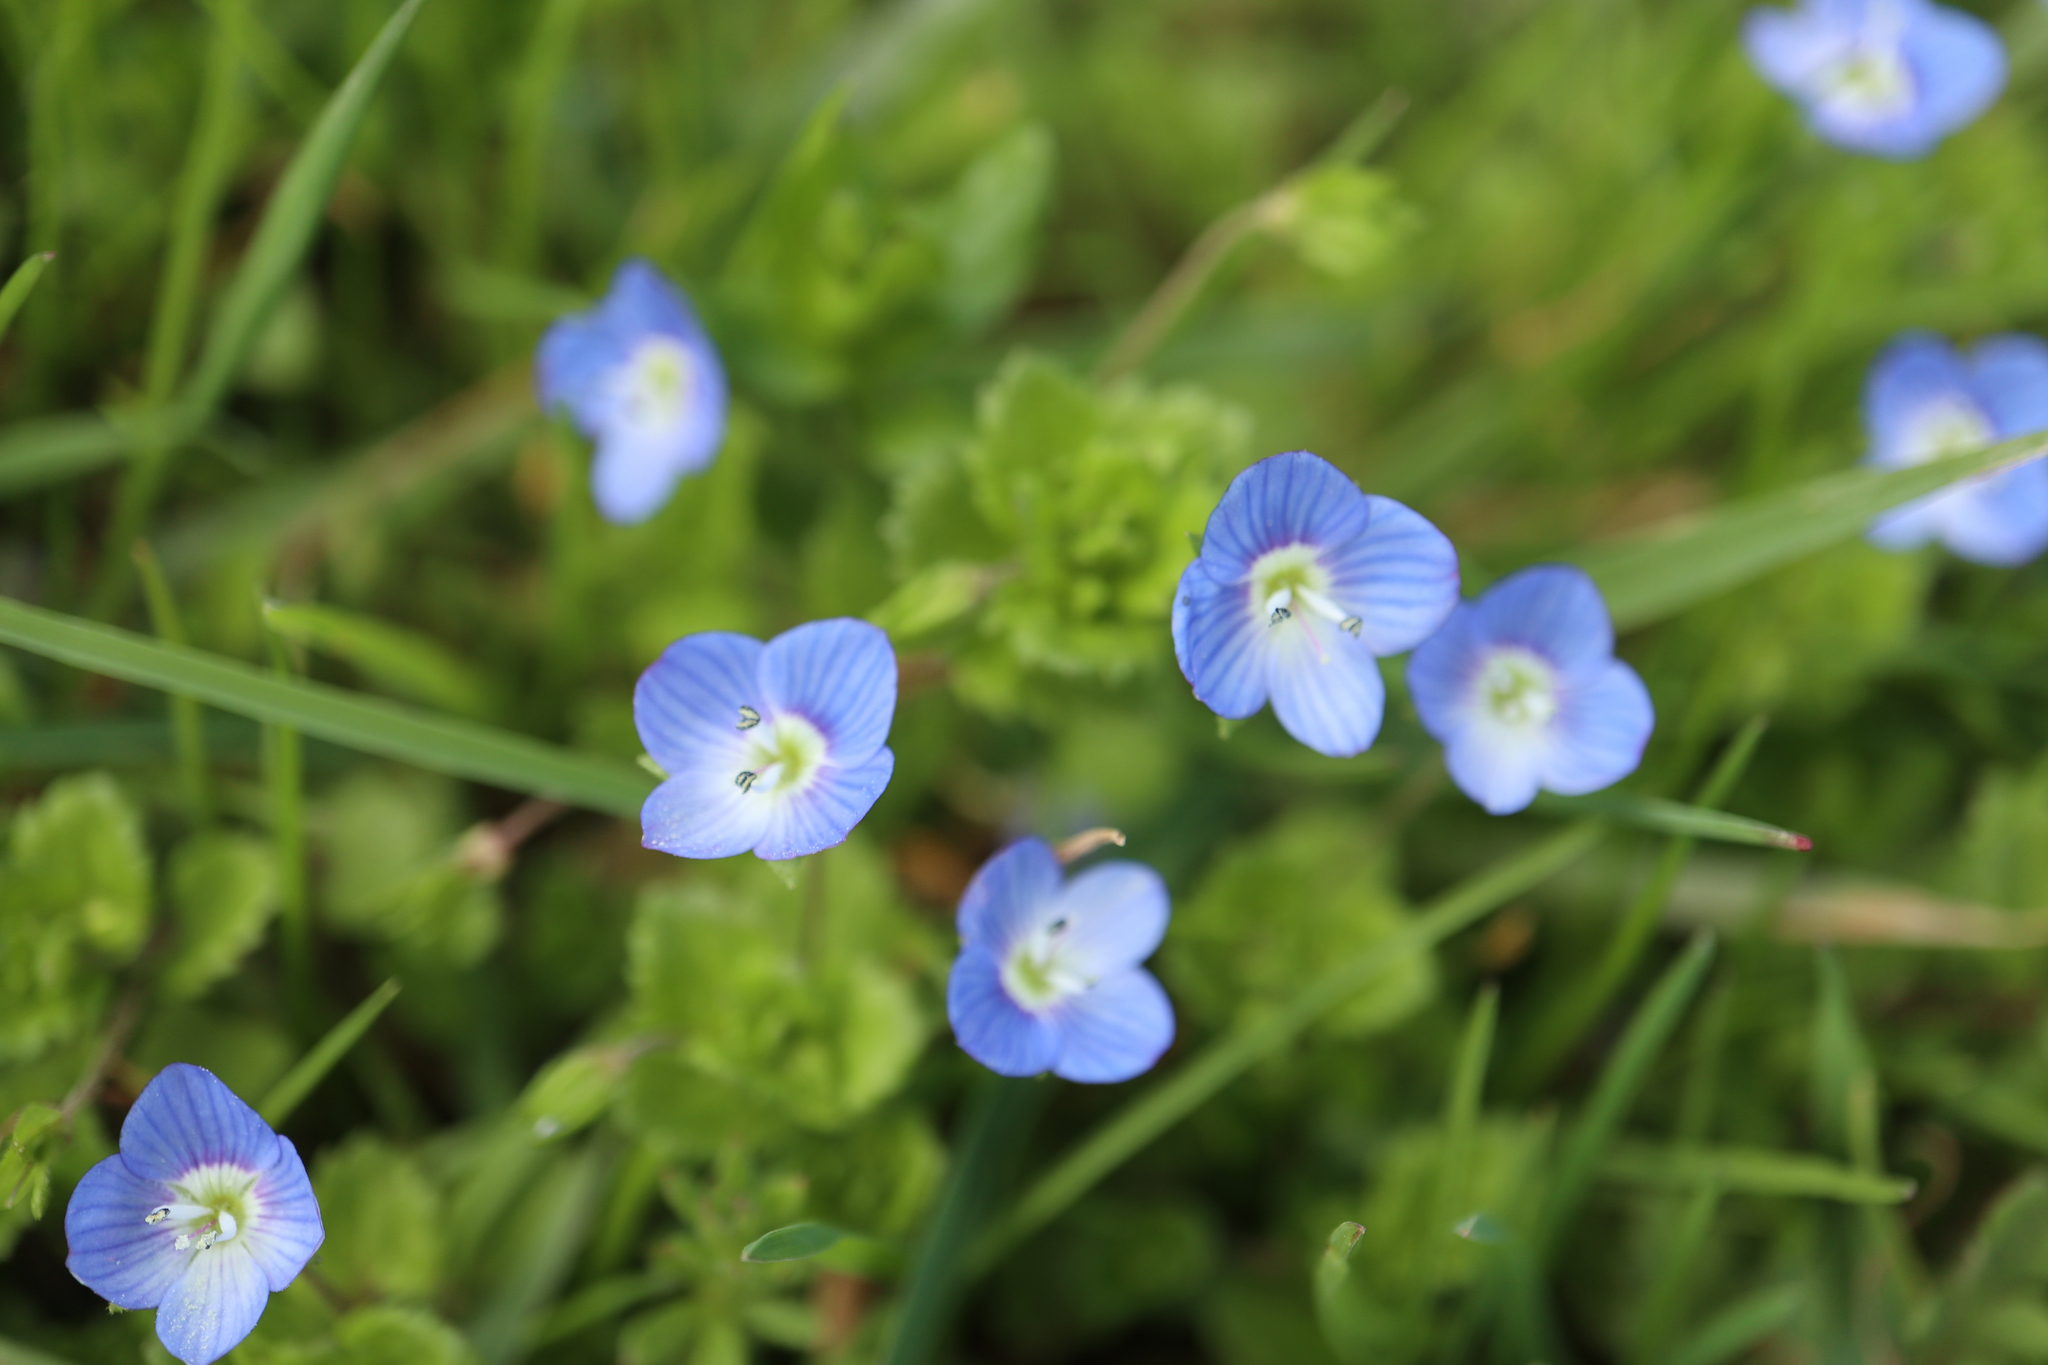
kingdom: Plantae
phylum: Tracheophyta
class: Magnoliopsida
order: Lamiales
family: Plantaginaceae
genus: Veronica
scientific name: Veronica persica
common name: Common field-speedwell
